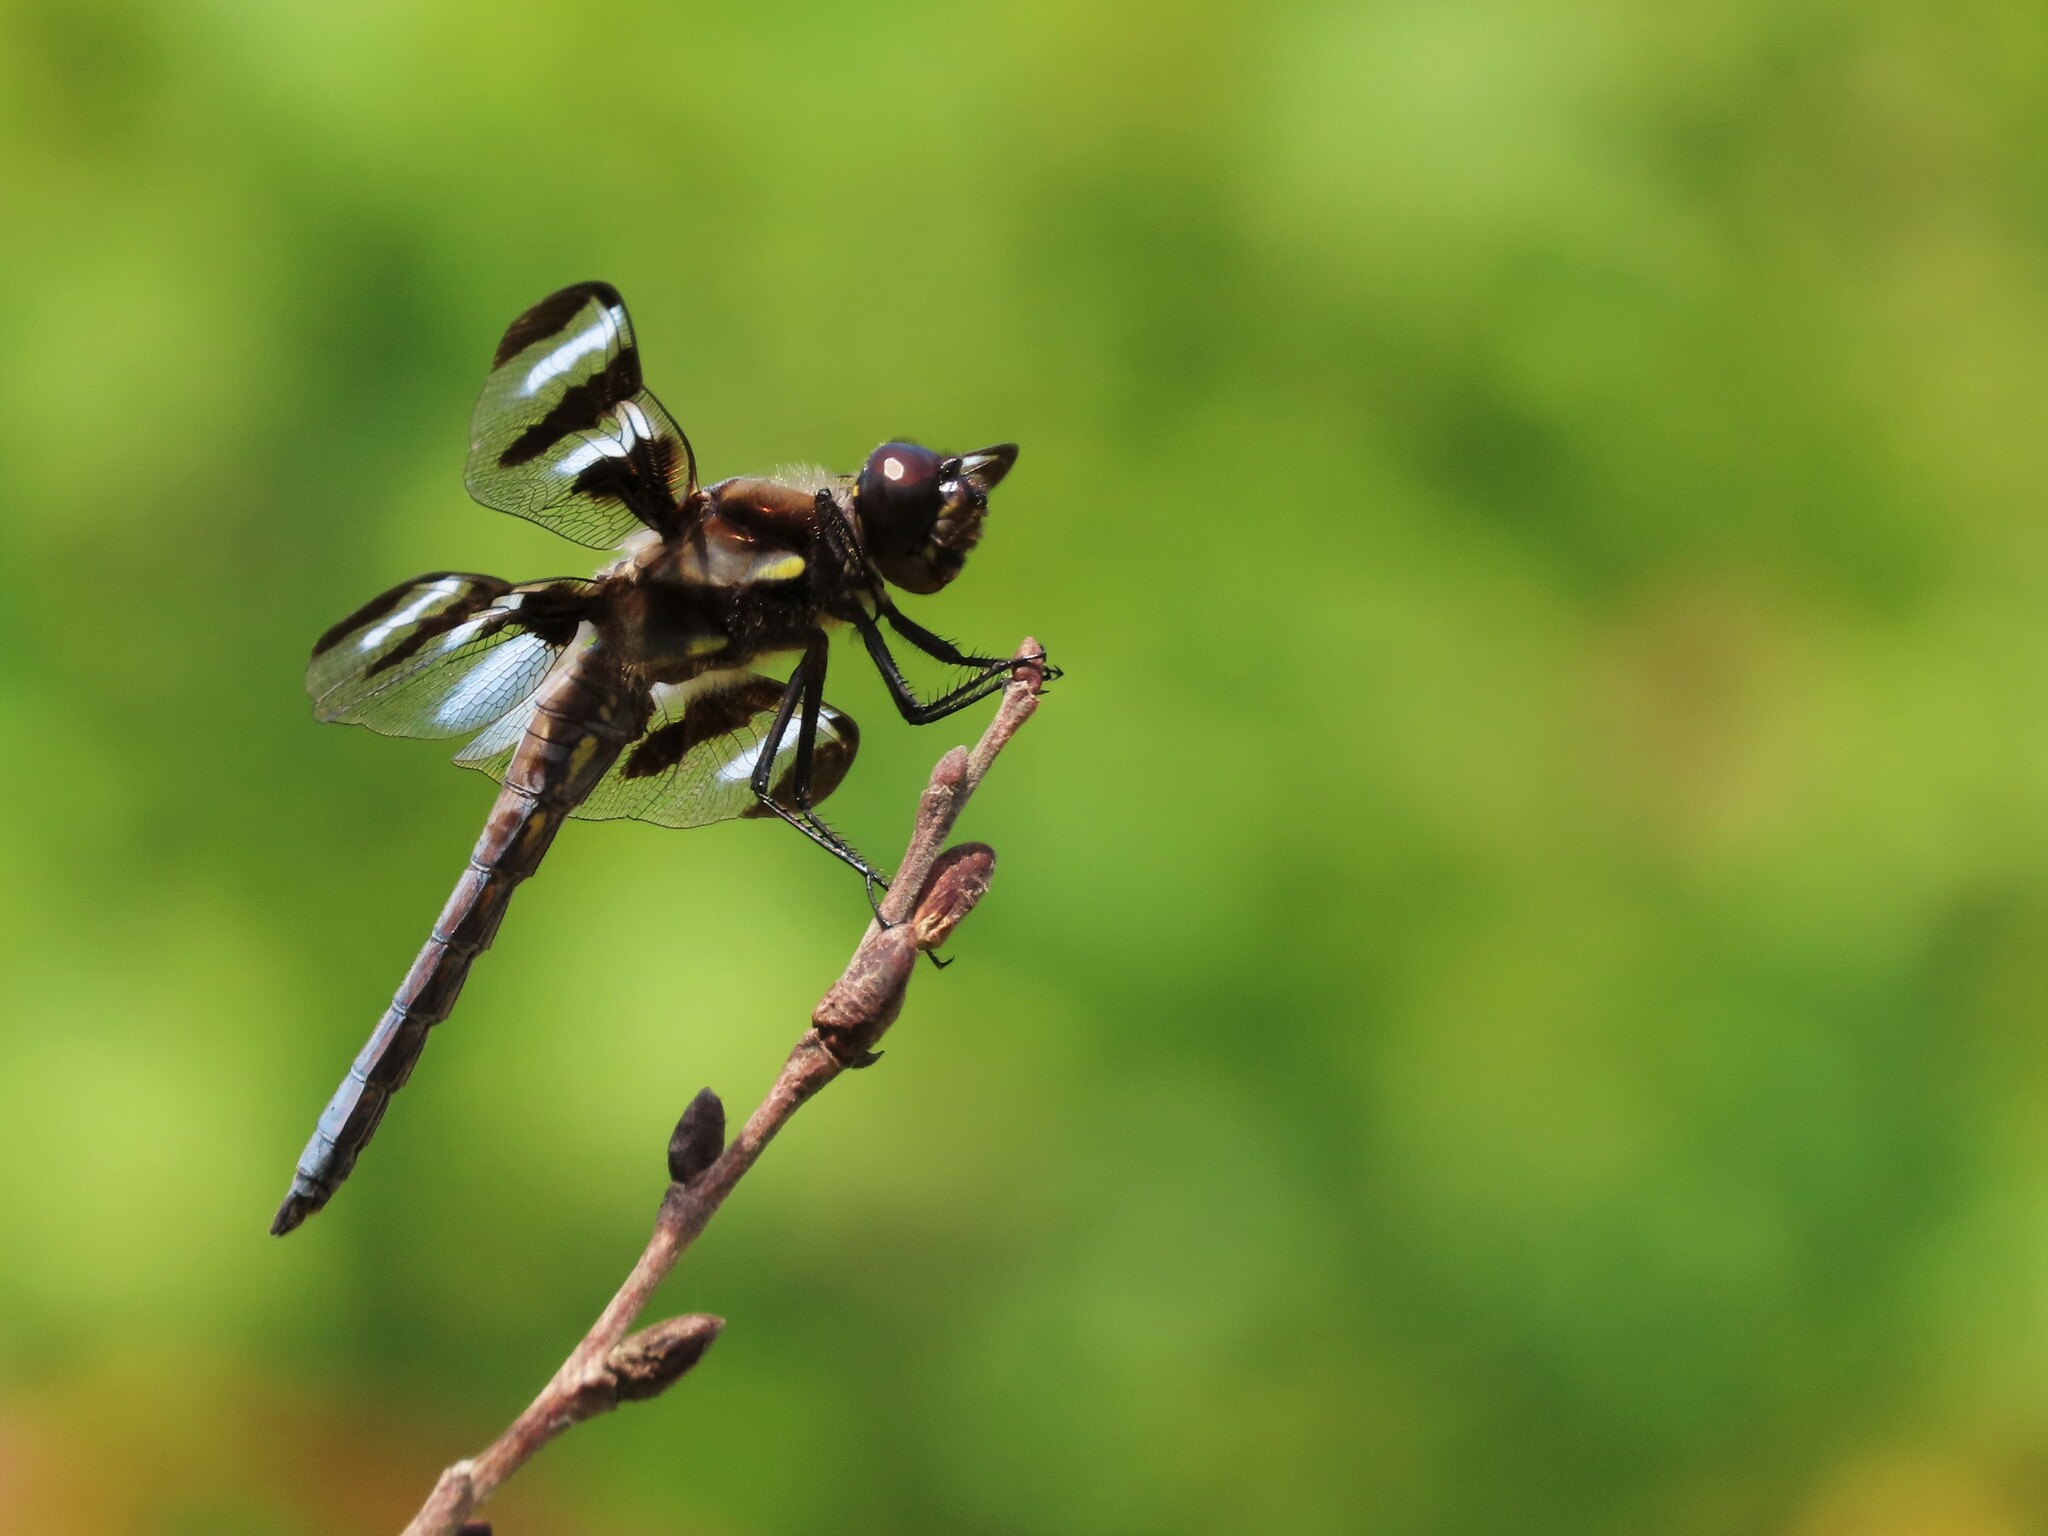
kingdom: Animalia
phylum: Arthropoda
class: Insecta
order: Odonata
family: Libellulidae
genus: Libellula
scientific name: Libellula pulchella
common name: Twelve-spotted skimmer
